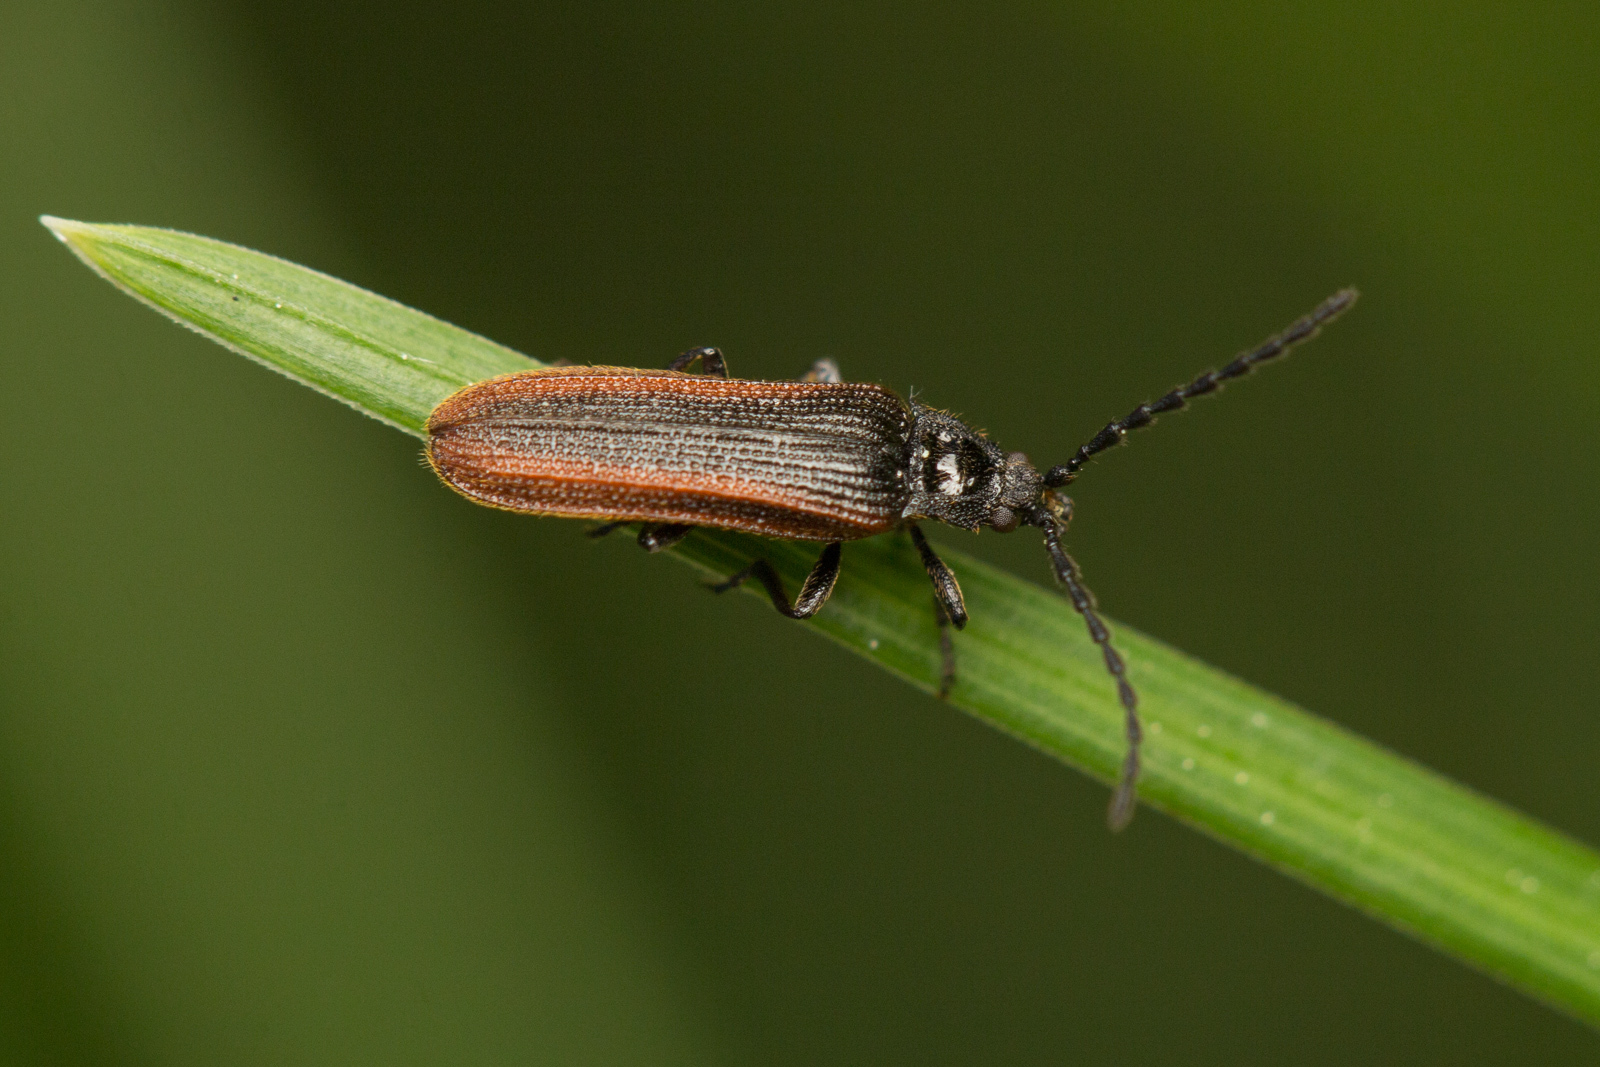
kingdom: Animalia
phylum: Arthropoda
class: Insecta
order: Coleoptera
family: Omalisidae
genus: Omalisus
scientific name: Omalisus fontisbellaquei
